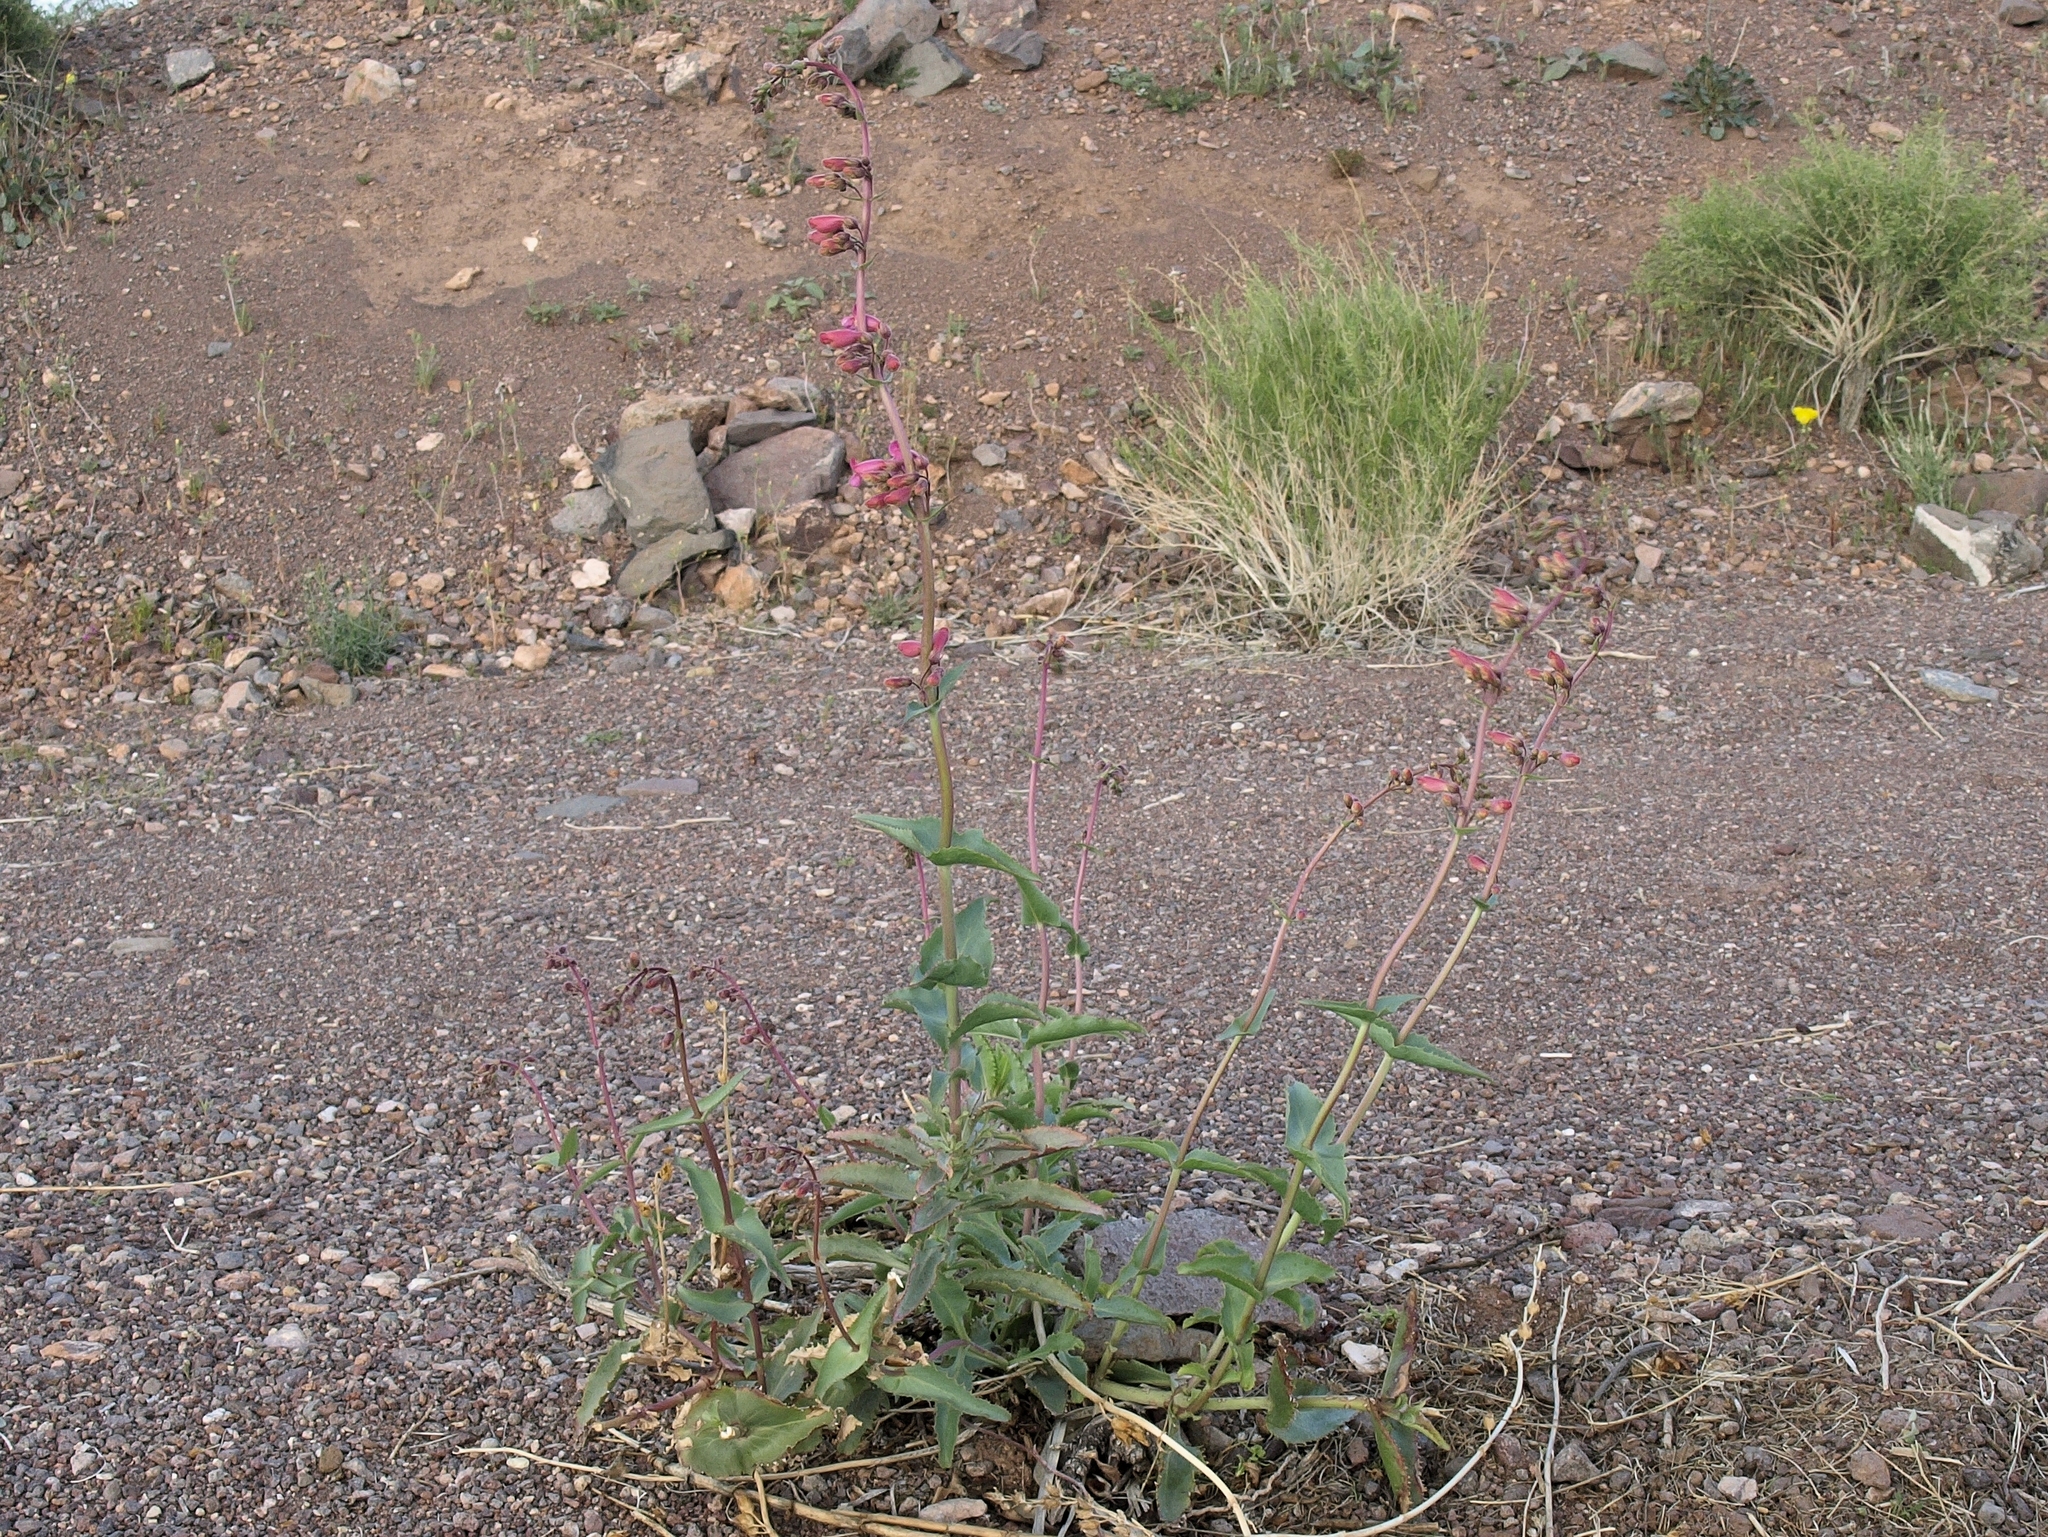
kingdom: Plantae
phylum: Tracheophyta
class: Magnoliopsida
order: Lamiales
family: Plantaginaceae
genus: Penstemon
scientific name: Penstemon bicolor
